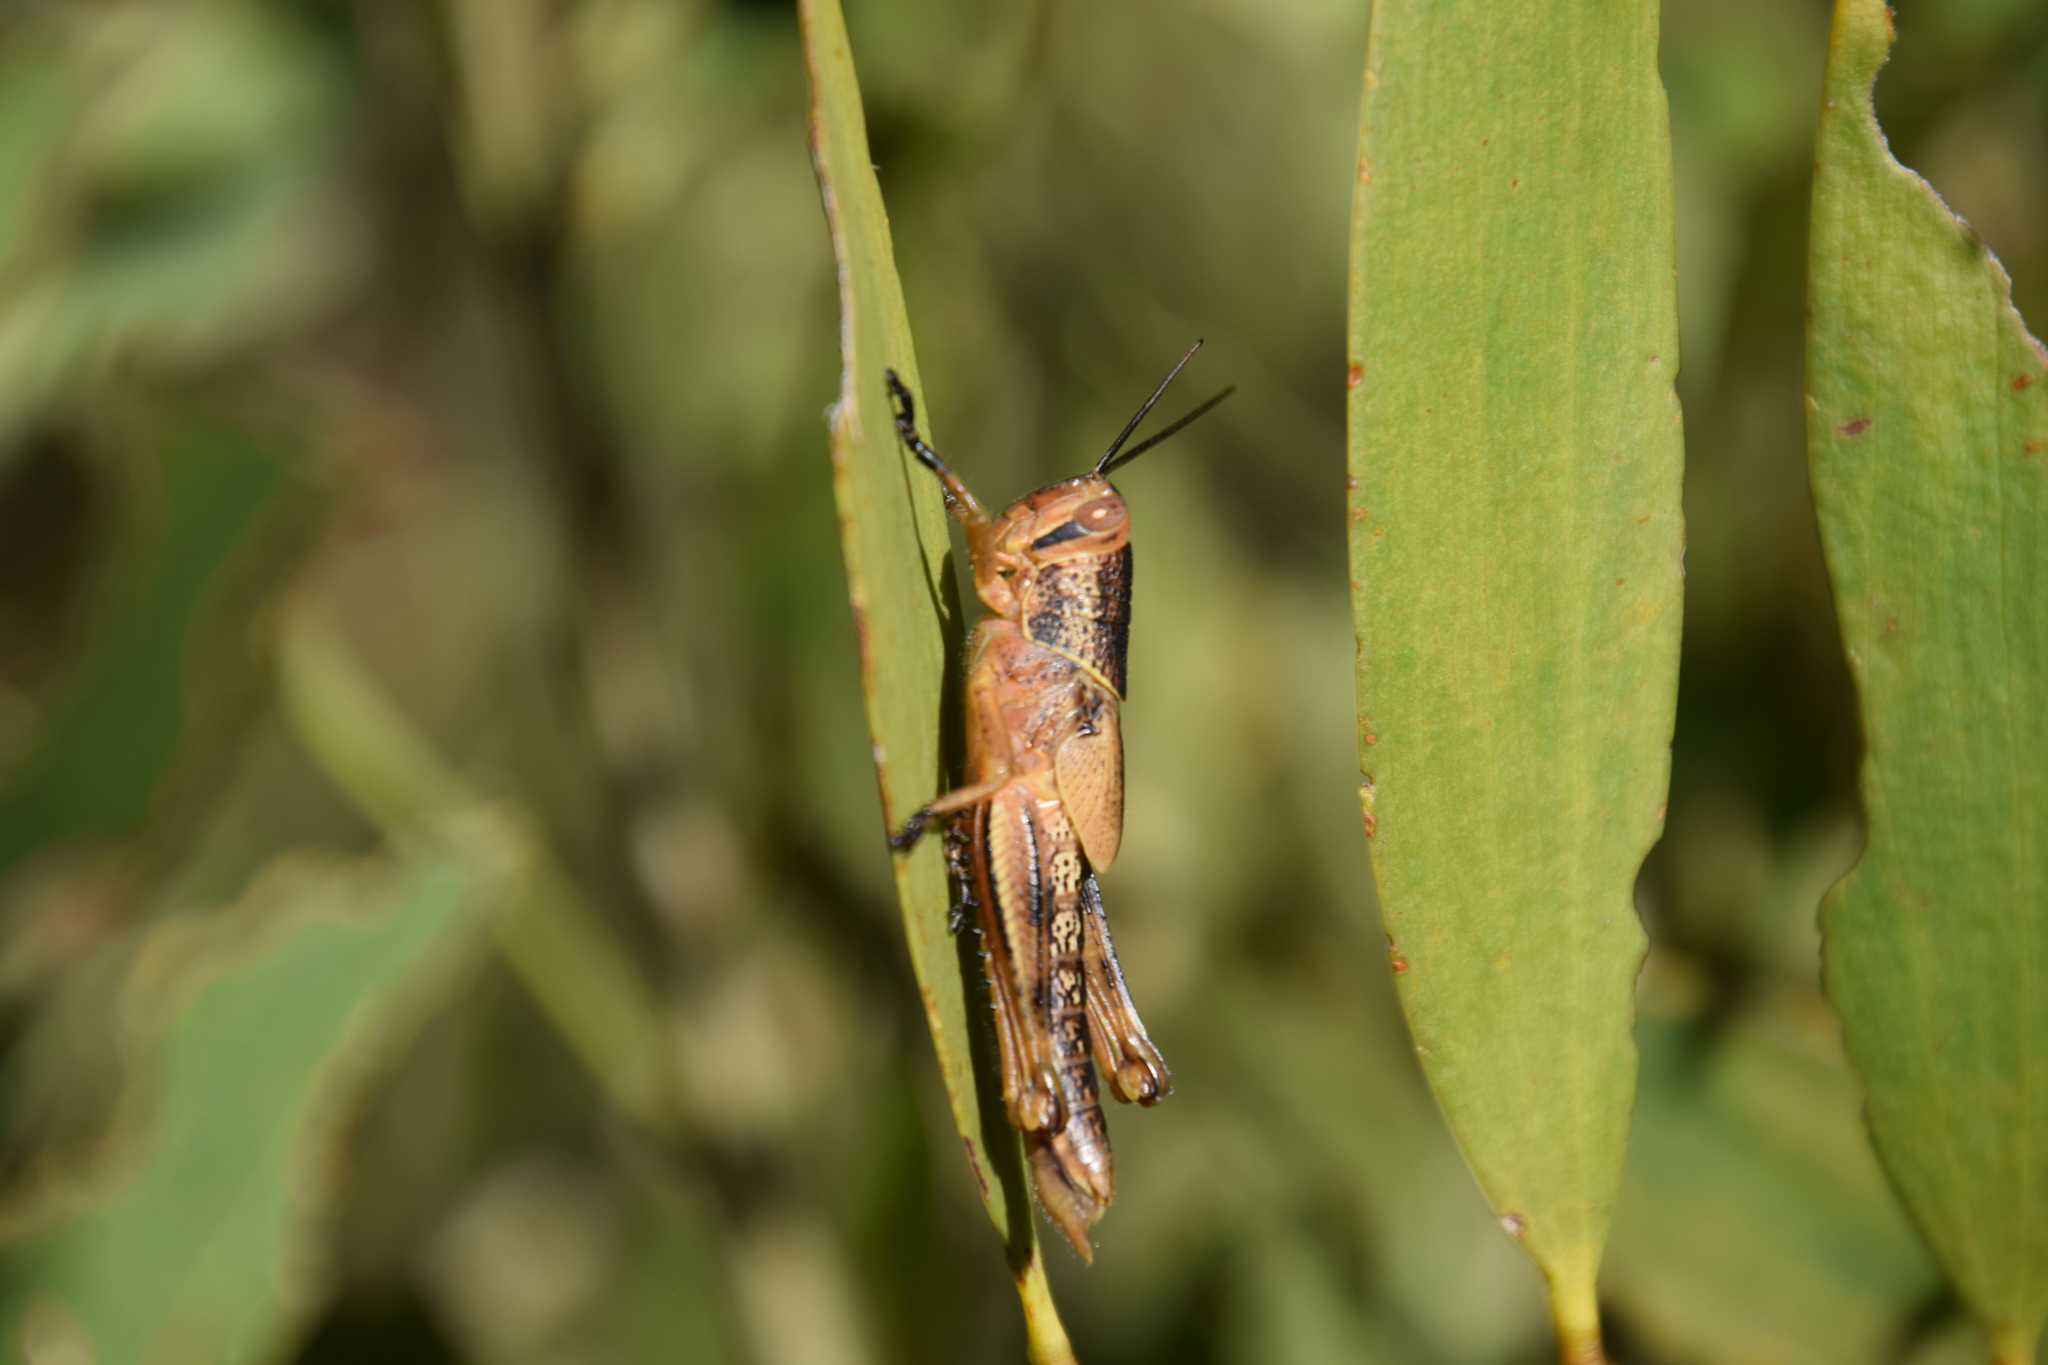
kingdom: Animalia
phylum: Arthropoda
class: Insecta
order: Orthoptera
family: Acrididae
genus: Valanga
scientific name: Valanga irregularis
